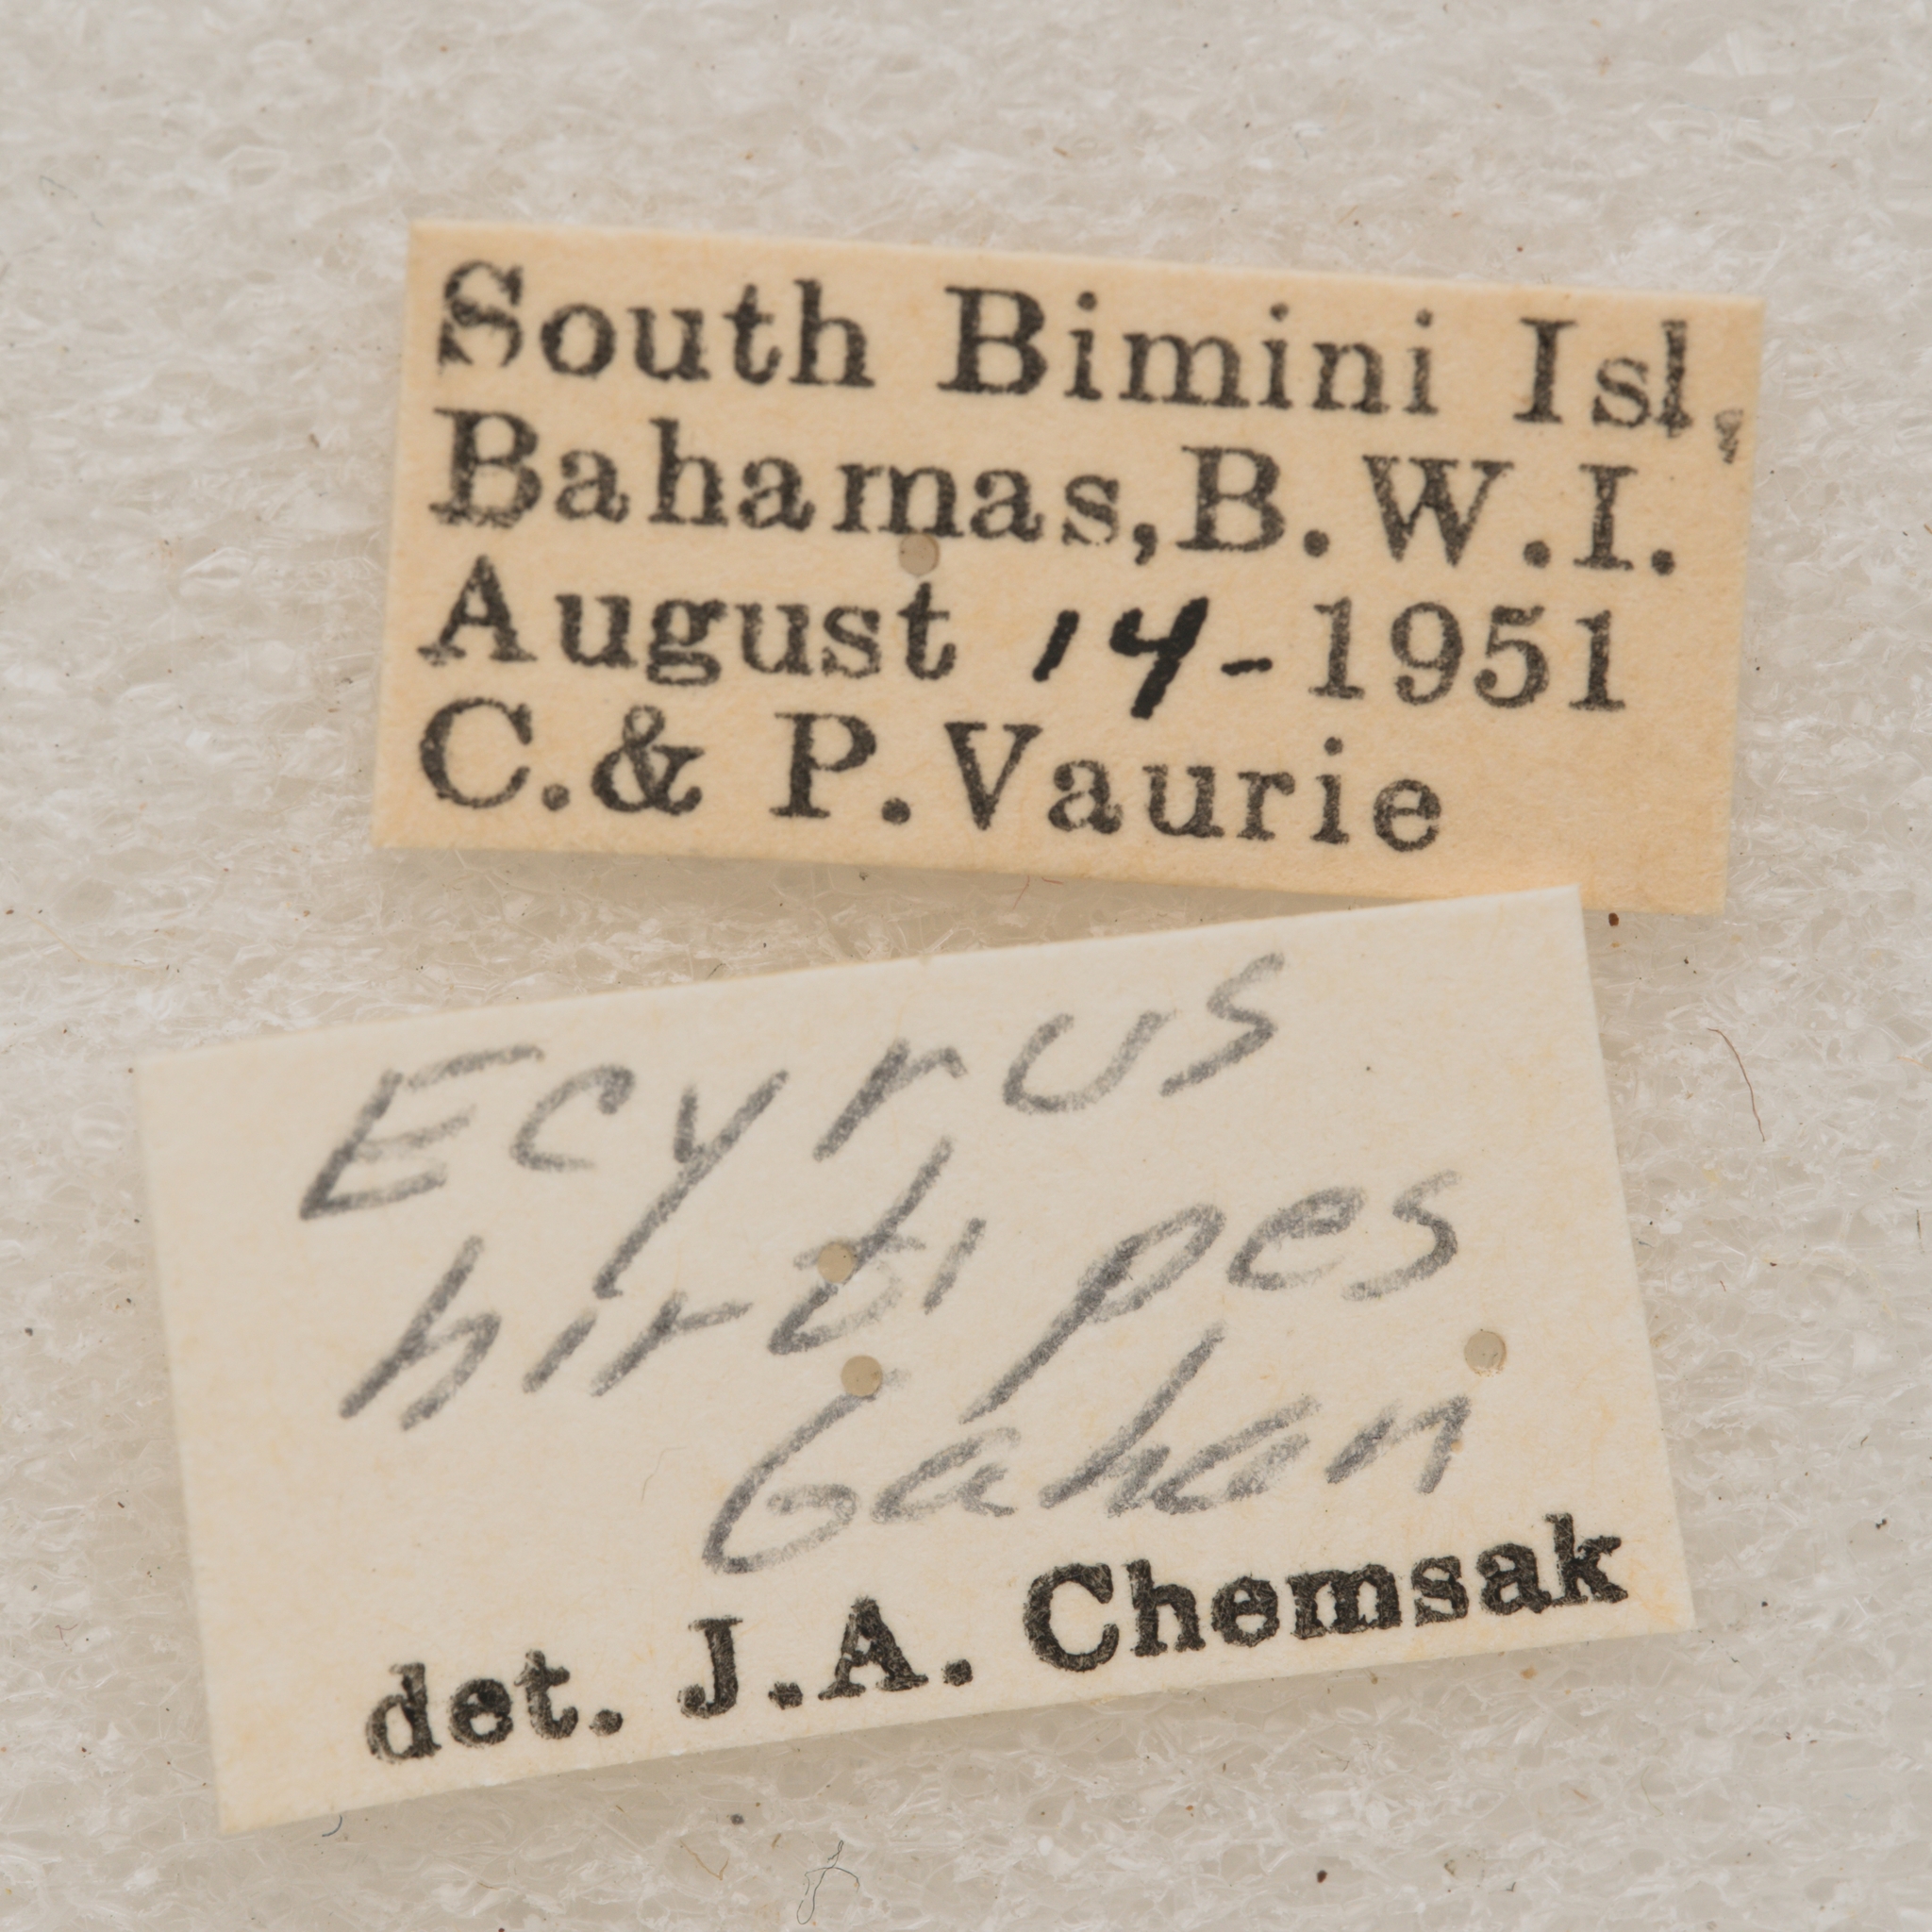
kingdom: Animalia
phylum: Arthropoda
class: Insecta
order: Coleoptera
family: Cerambycidae
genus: Hypomia
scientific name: Hypomia mexicana
